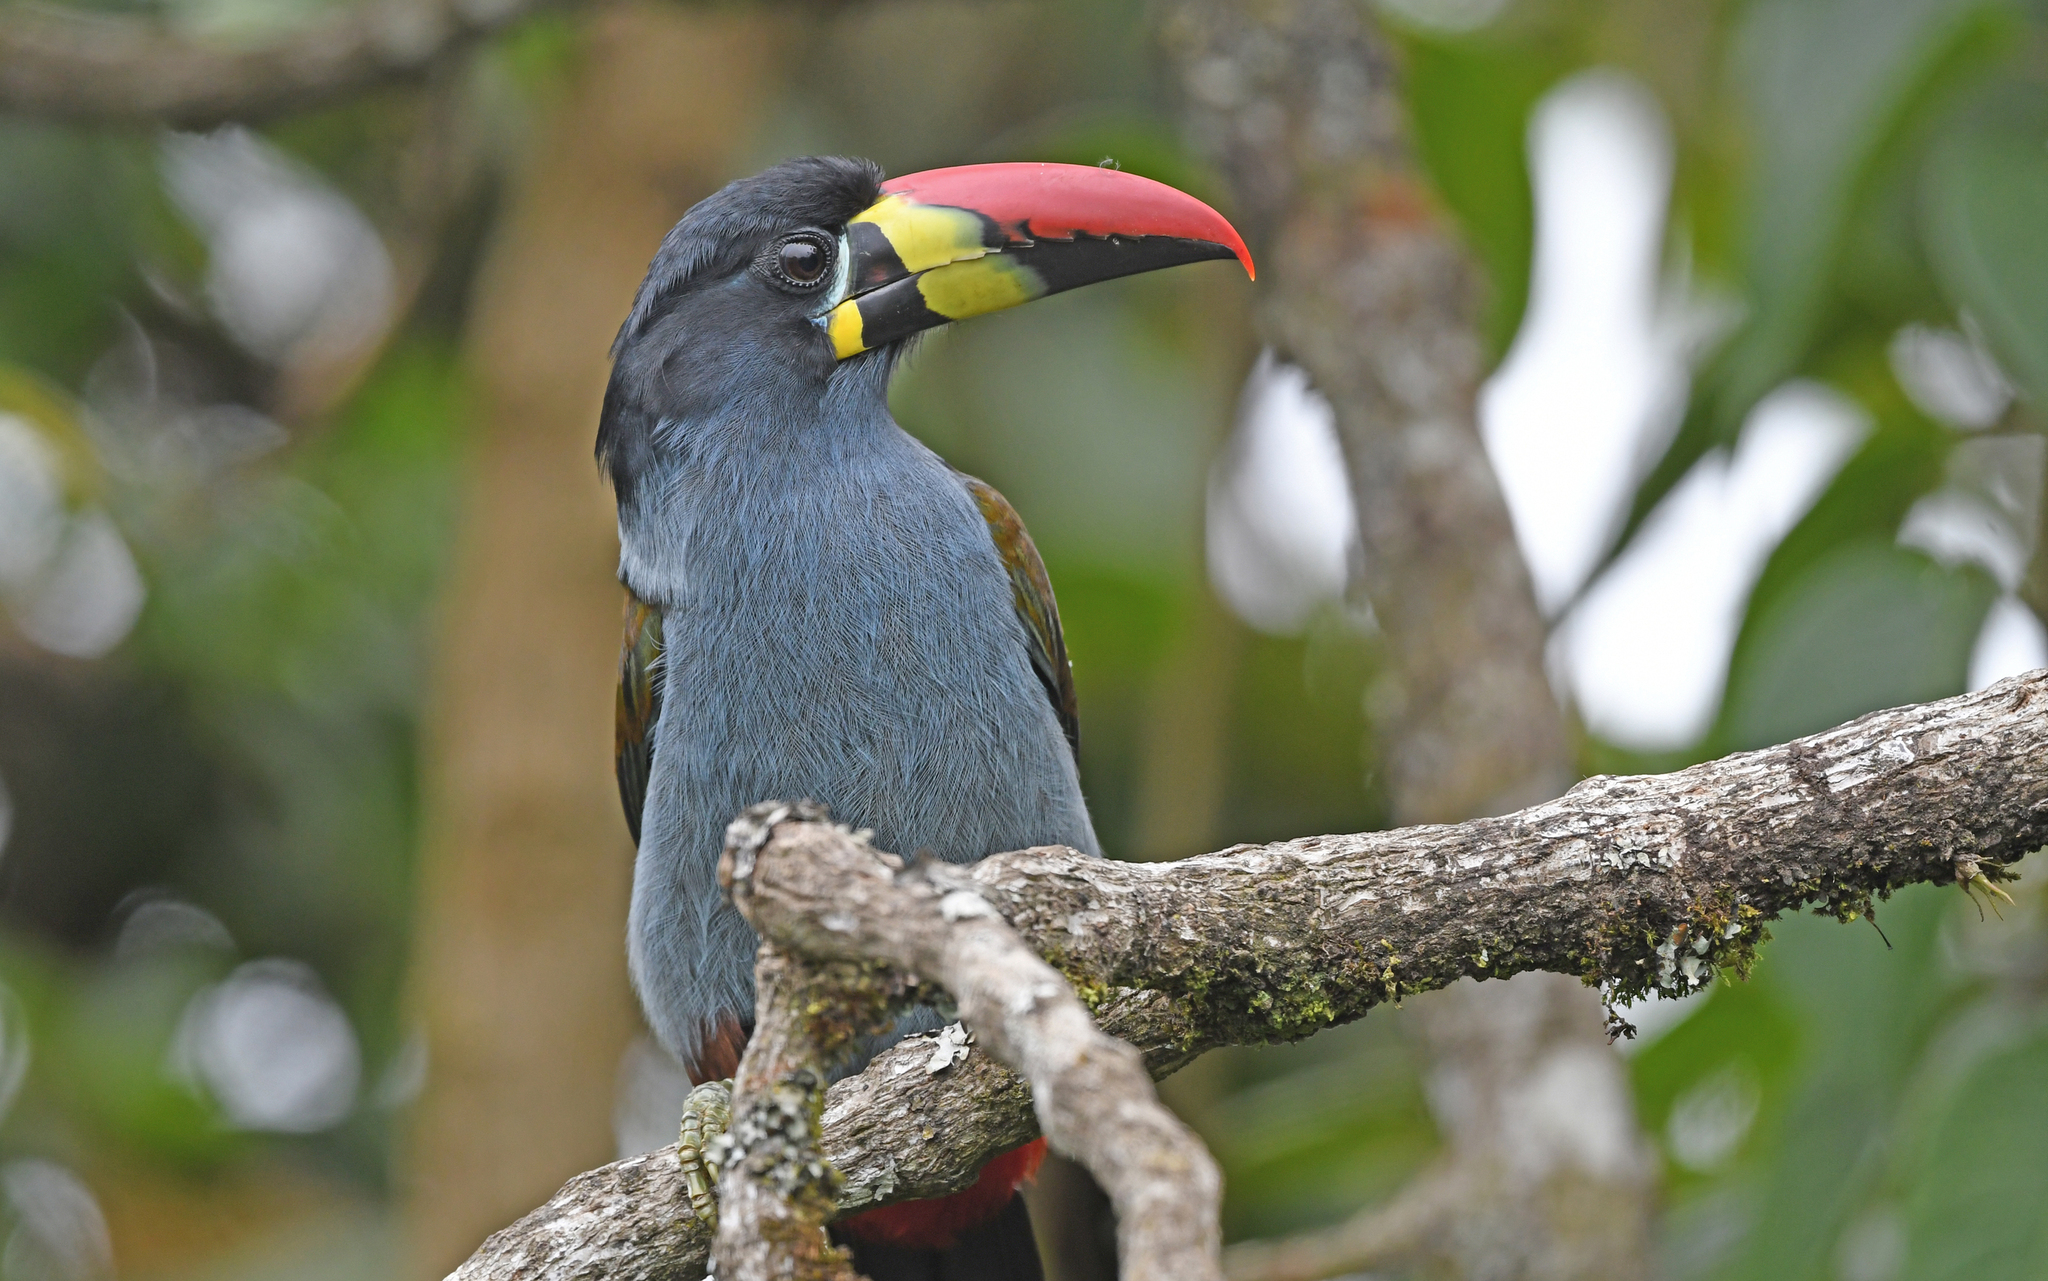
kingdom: Animalia
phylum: Chordata
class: Aves
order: Piciformes
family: Ramphastidae
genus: Andigena
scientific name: Andigena hypoglauca
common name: Grey-breasted mountain toucan
